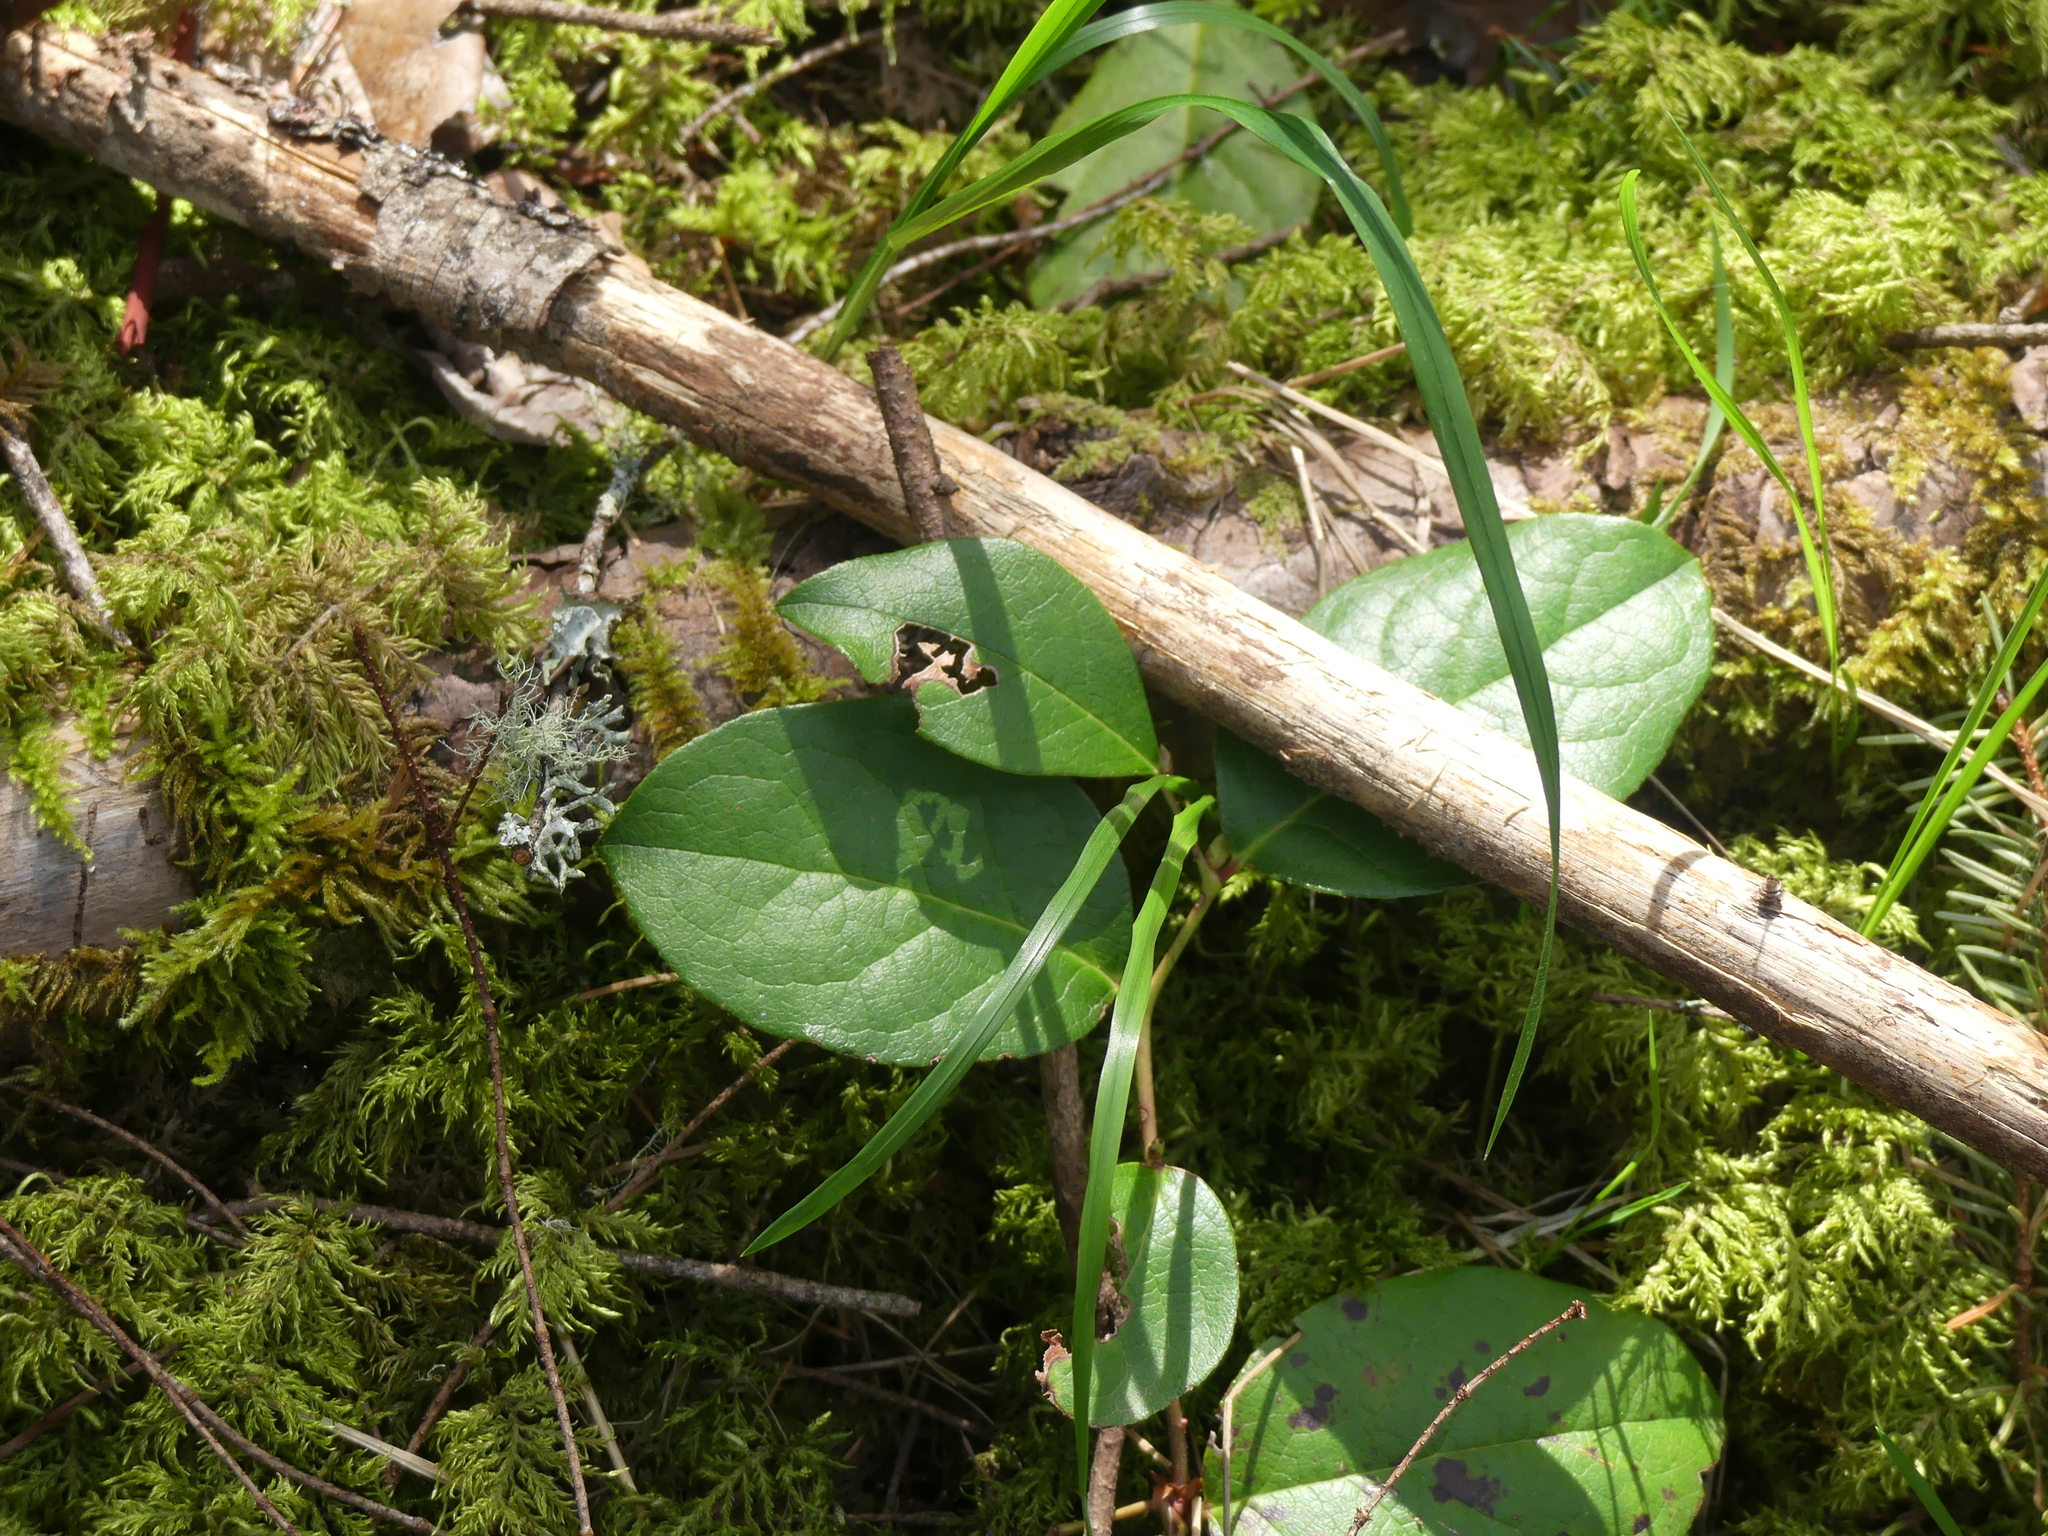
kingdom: Plantae
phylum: Tracheophyta
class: Magnoliopsida
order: Ericales
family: Ericaceae
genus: Gaultheria
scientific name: Gaultheria shallon
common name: Shallon
